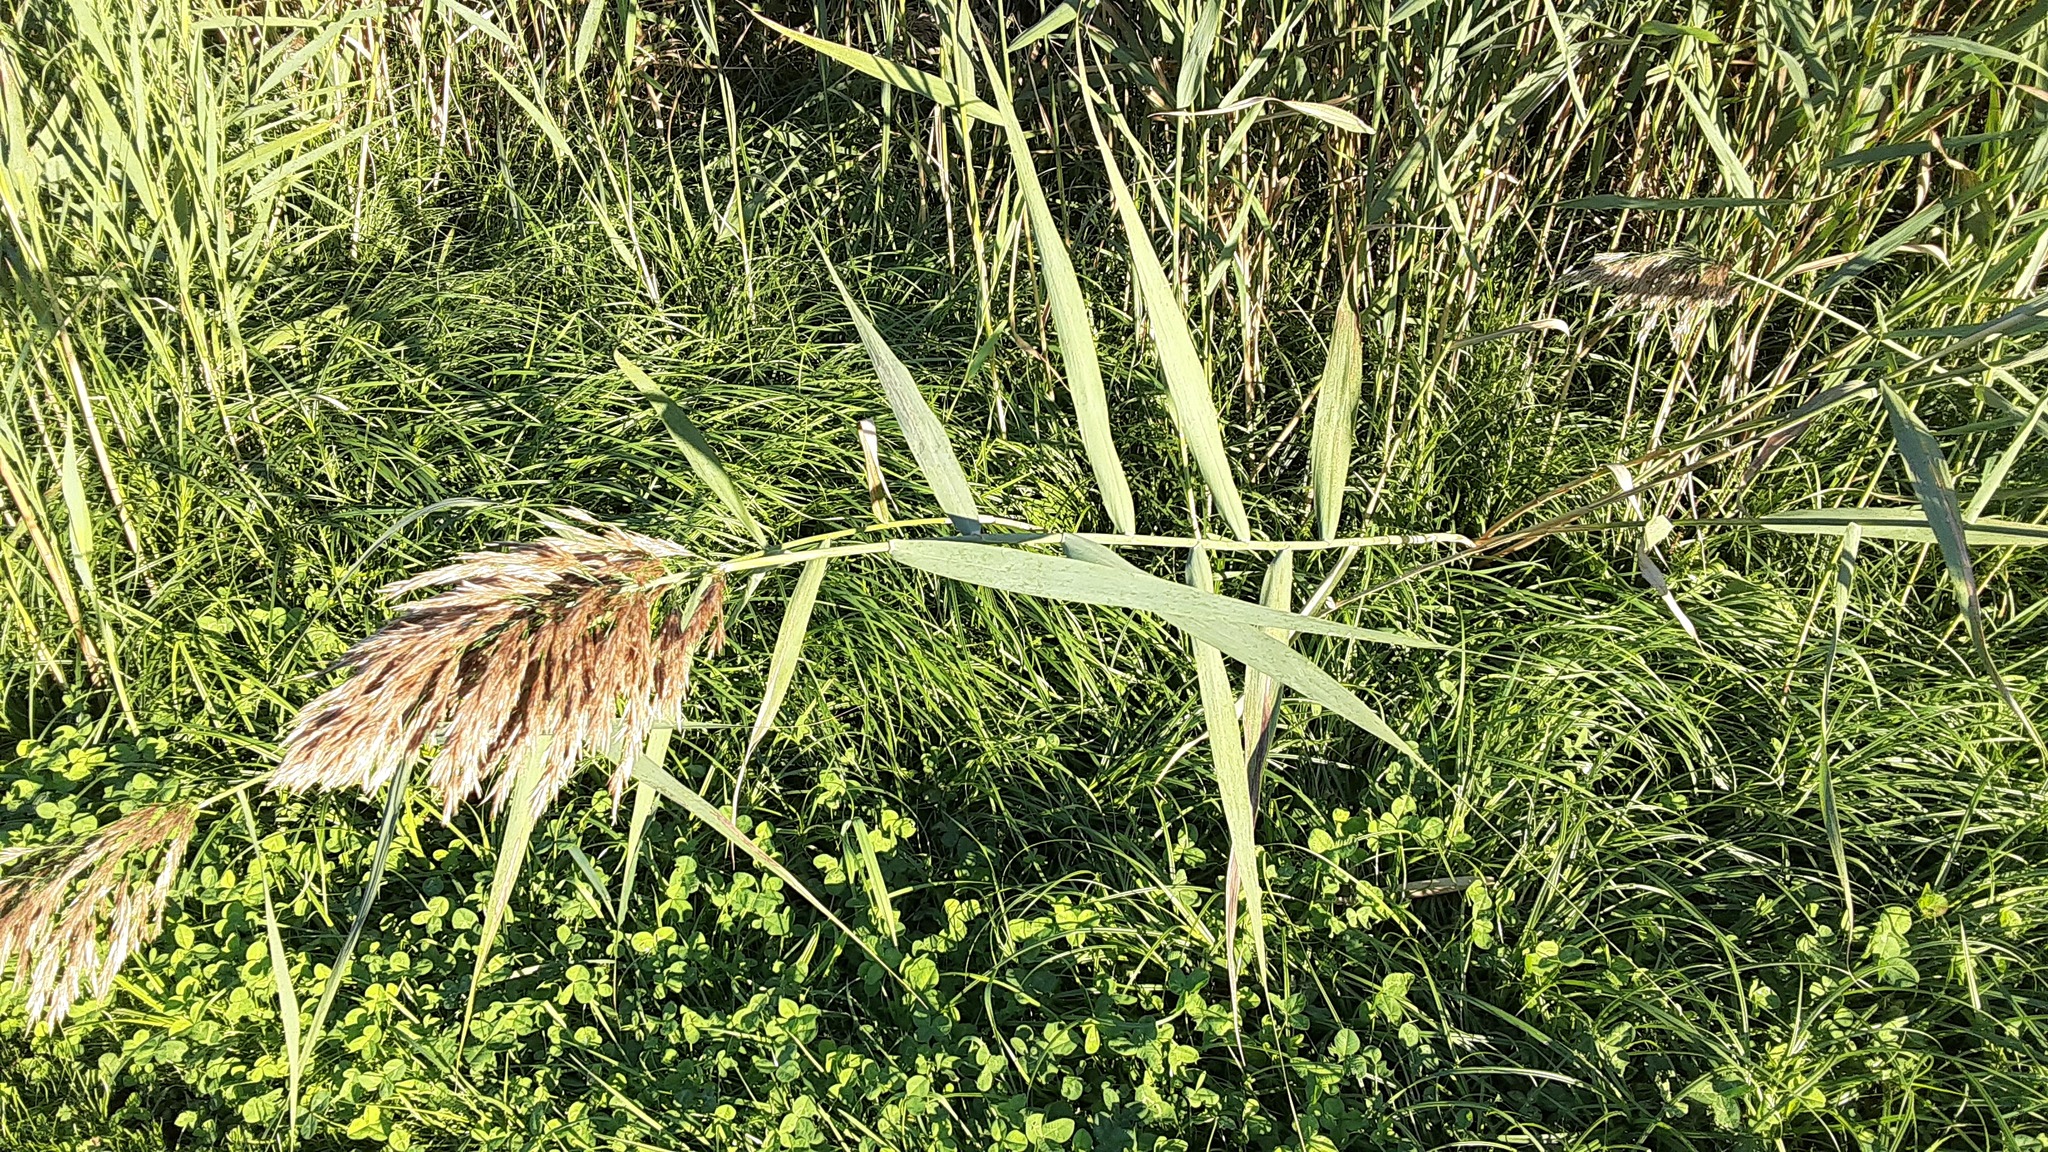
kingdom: Plantae
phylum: Tracheophyta
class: Liliopsida
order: Poales
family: Poaceae
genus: Phragmites
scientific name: Phragmites australis
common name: Common reed
